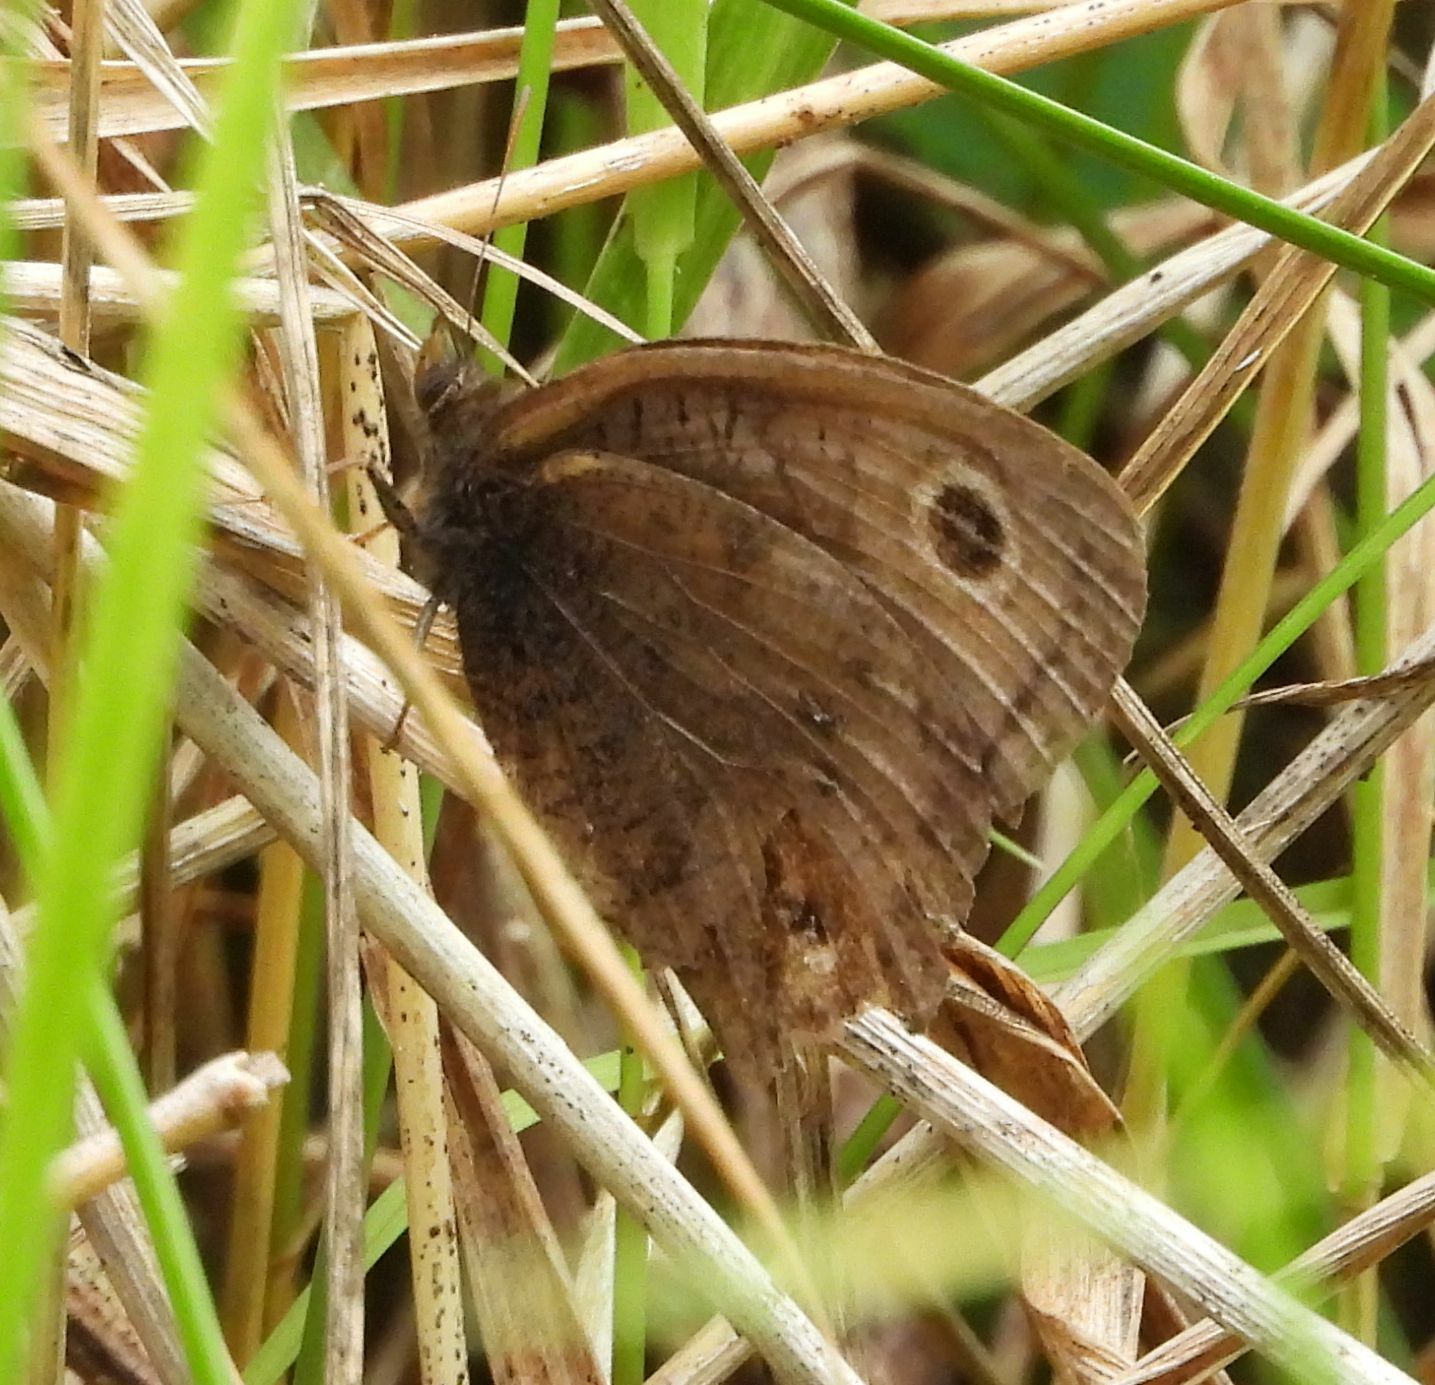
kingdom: Animalia
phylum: Arthropoda
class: Insecta
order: Lepidoptera
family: Nymphalidae
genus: Cercyonis
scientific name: Cercyonis pegala
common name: Common wood-nymph
